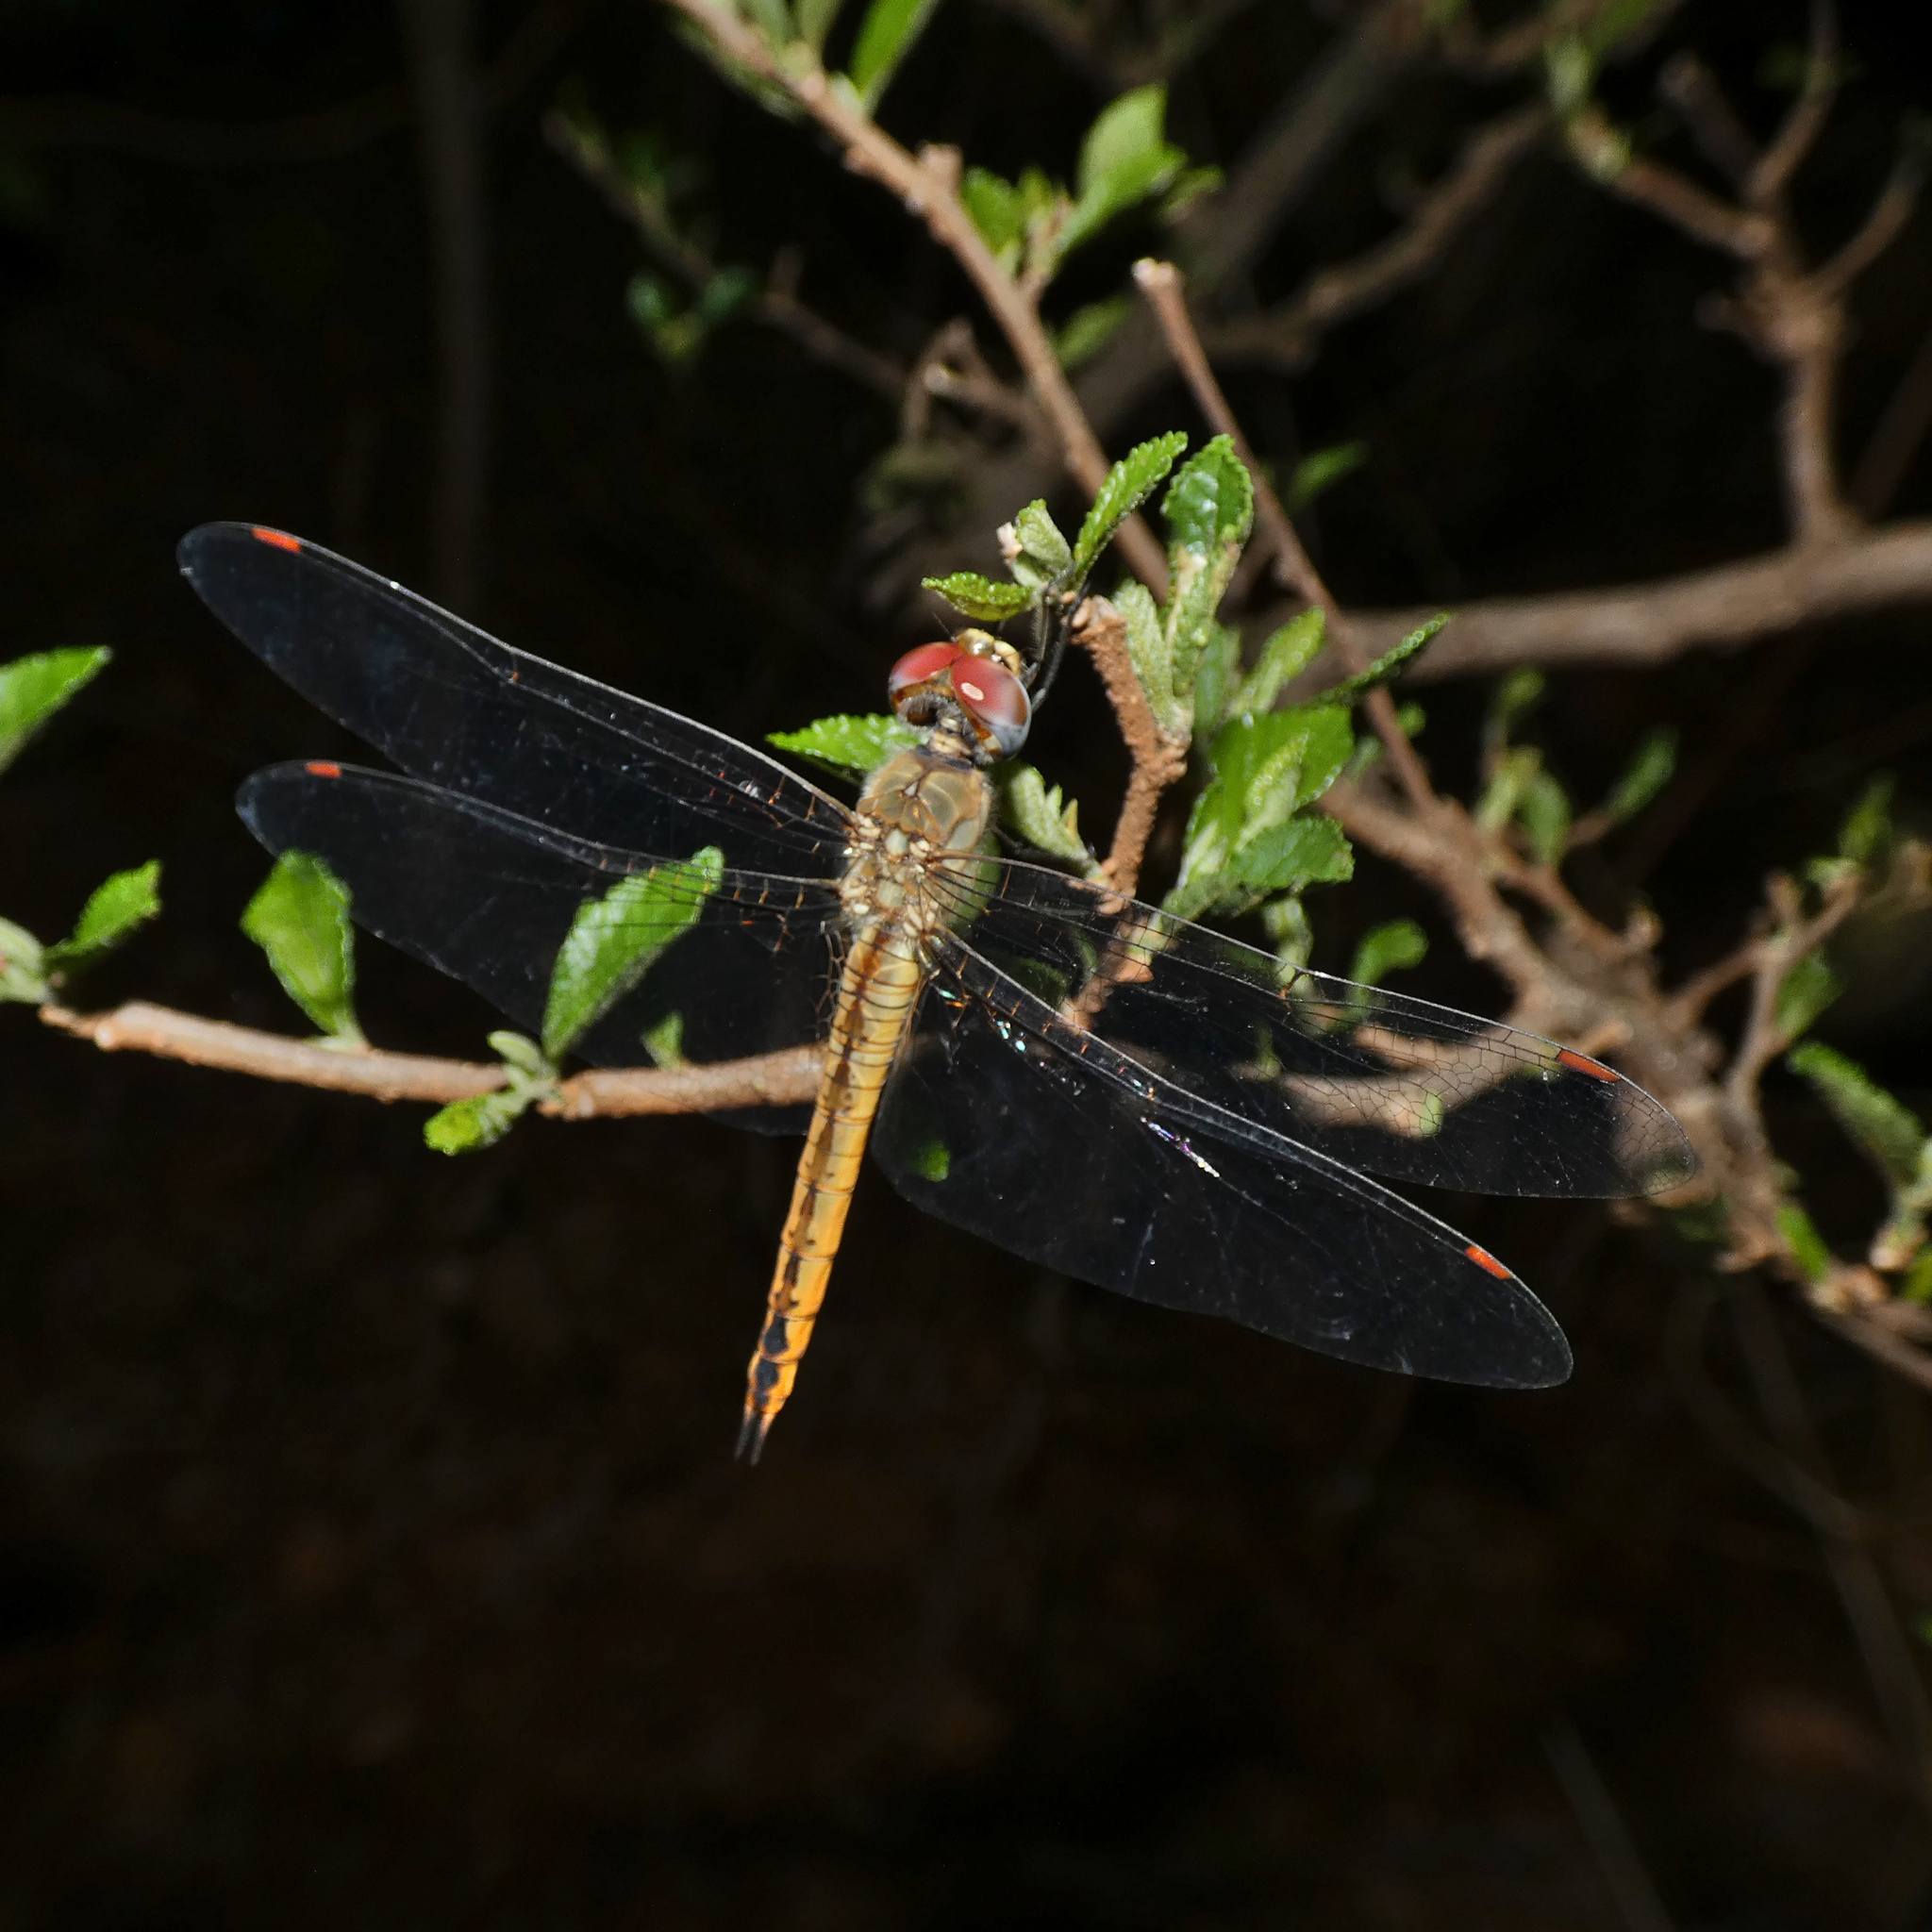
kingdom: Animalia
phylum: Arthropoda
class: Insecta
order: Odonata
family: Libellulidae
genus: Pantala
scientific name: Pantala flavescens
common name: Wandering glider
